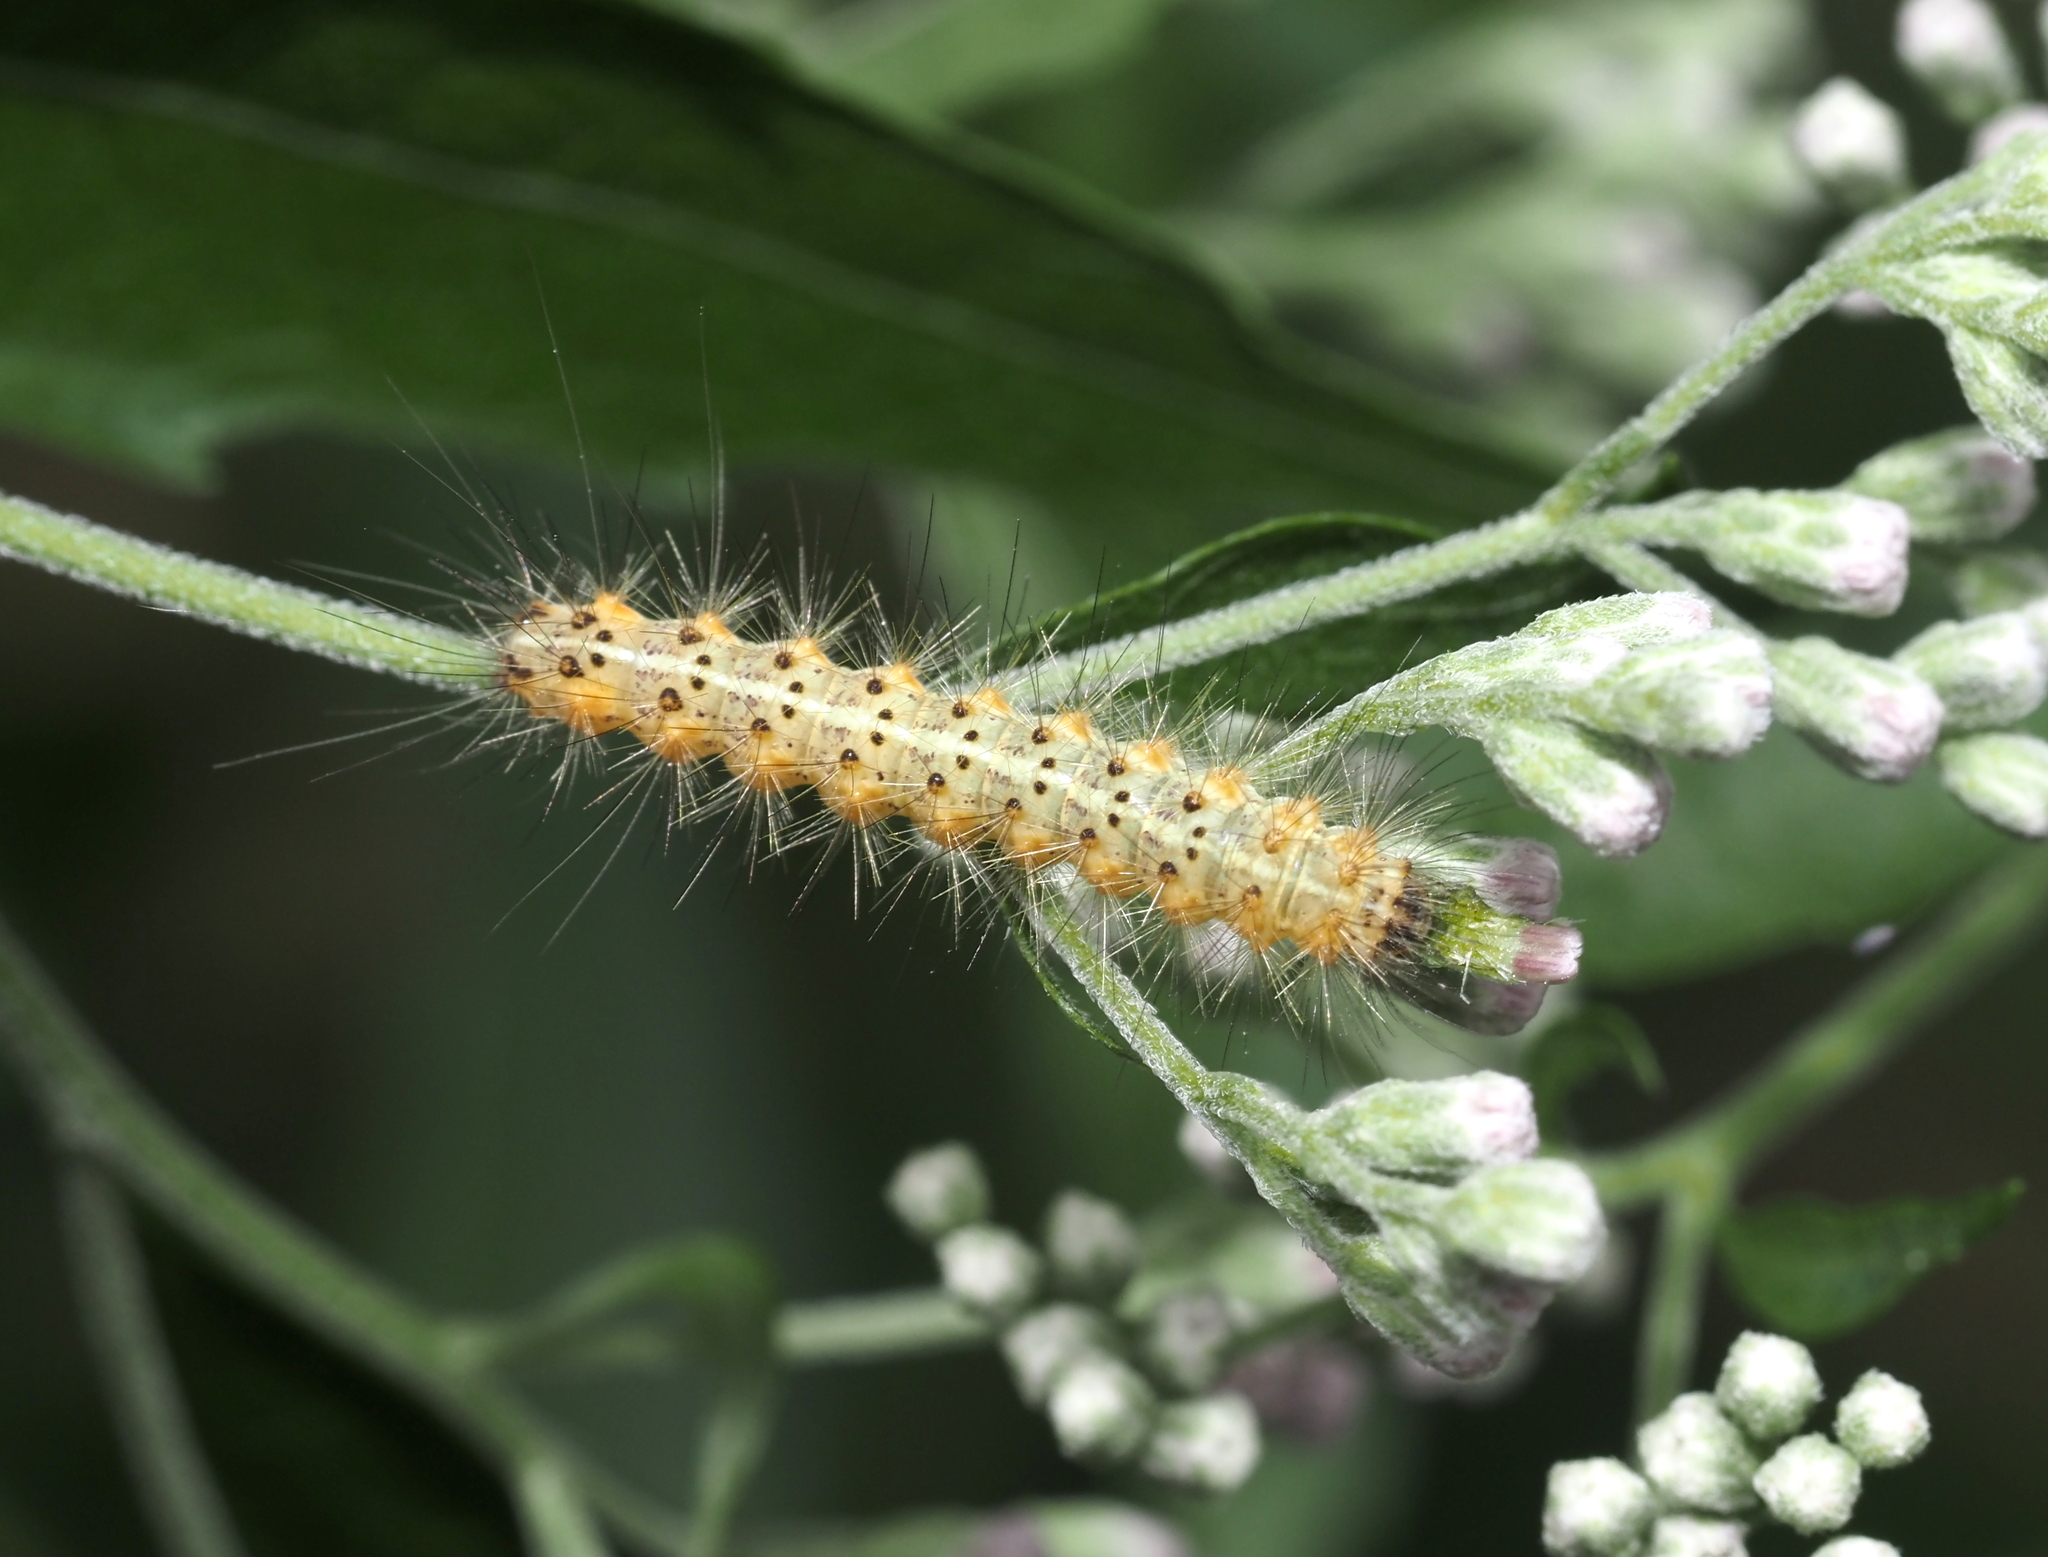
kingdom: Animalia
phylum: Arthropoda
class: Insecta
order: Lepidoptera
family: Erebidae
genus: Estigmene
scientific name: Estigmene acrea
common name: Salt marsh moth
